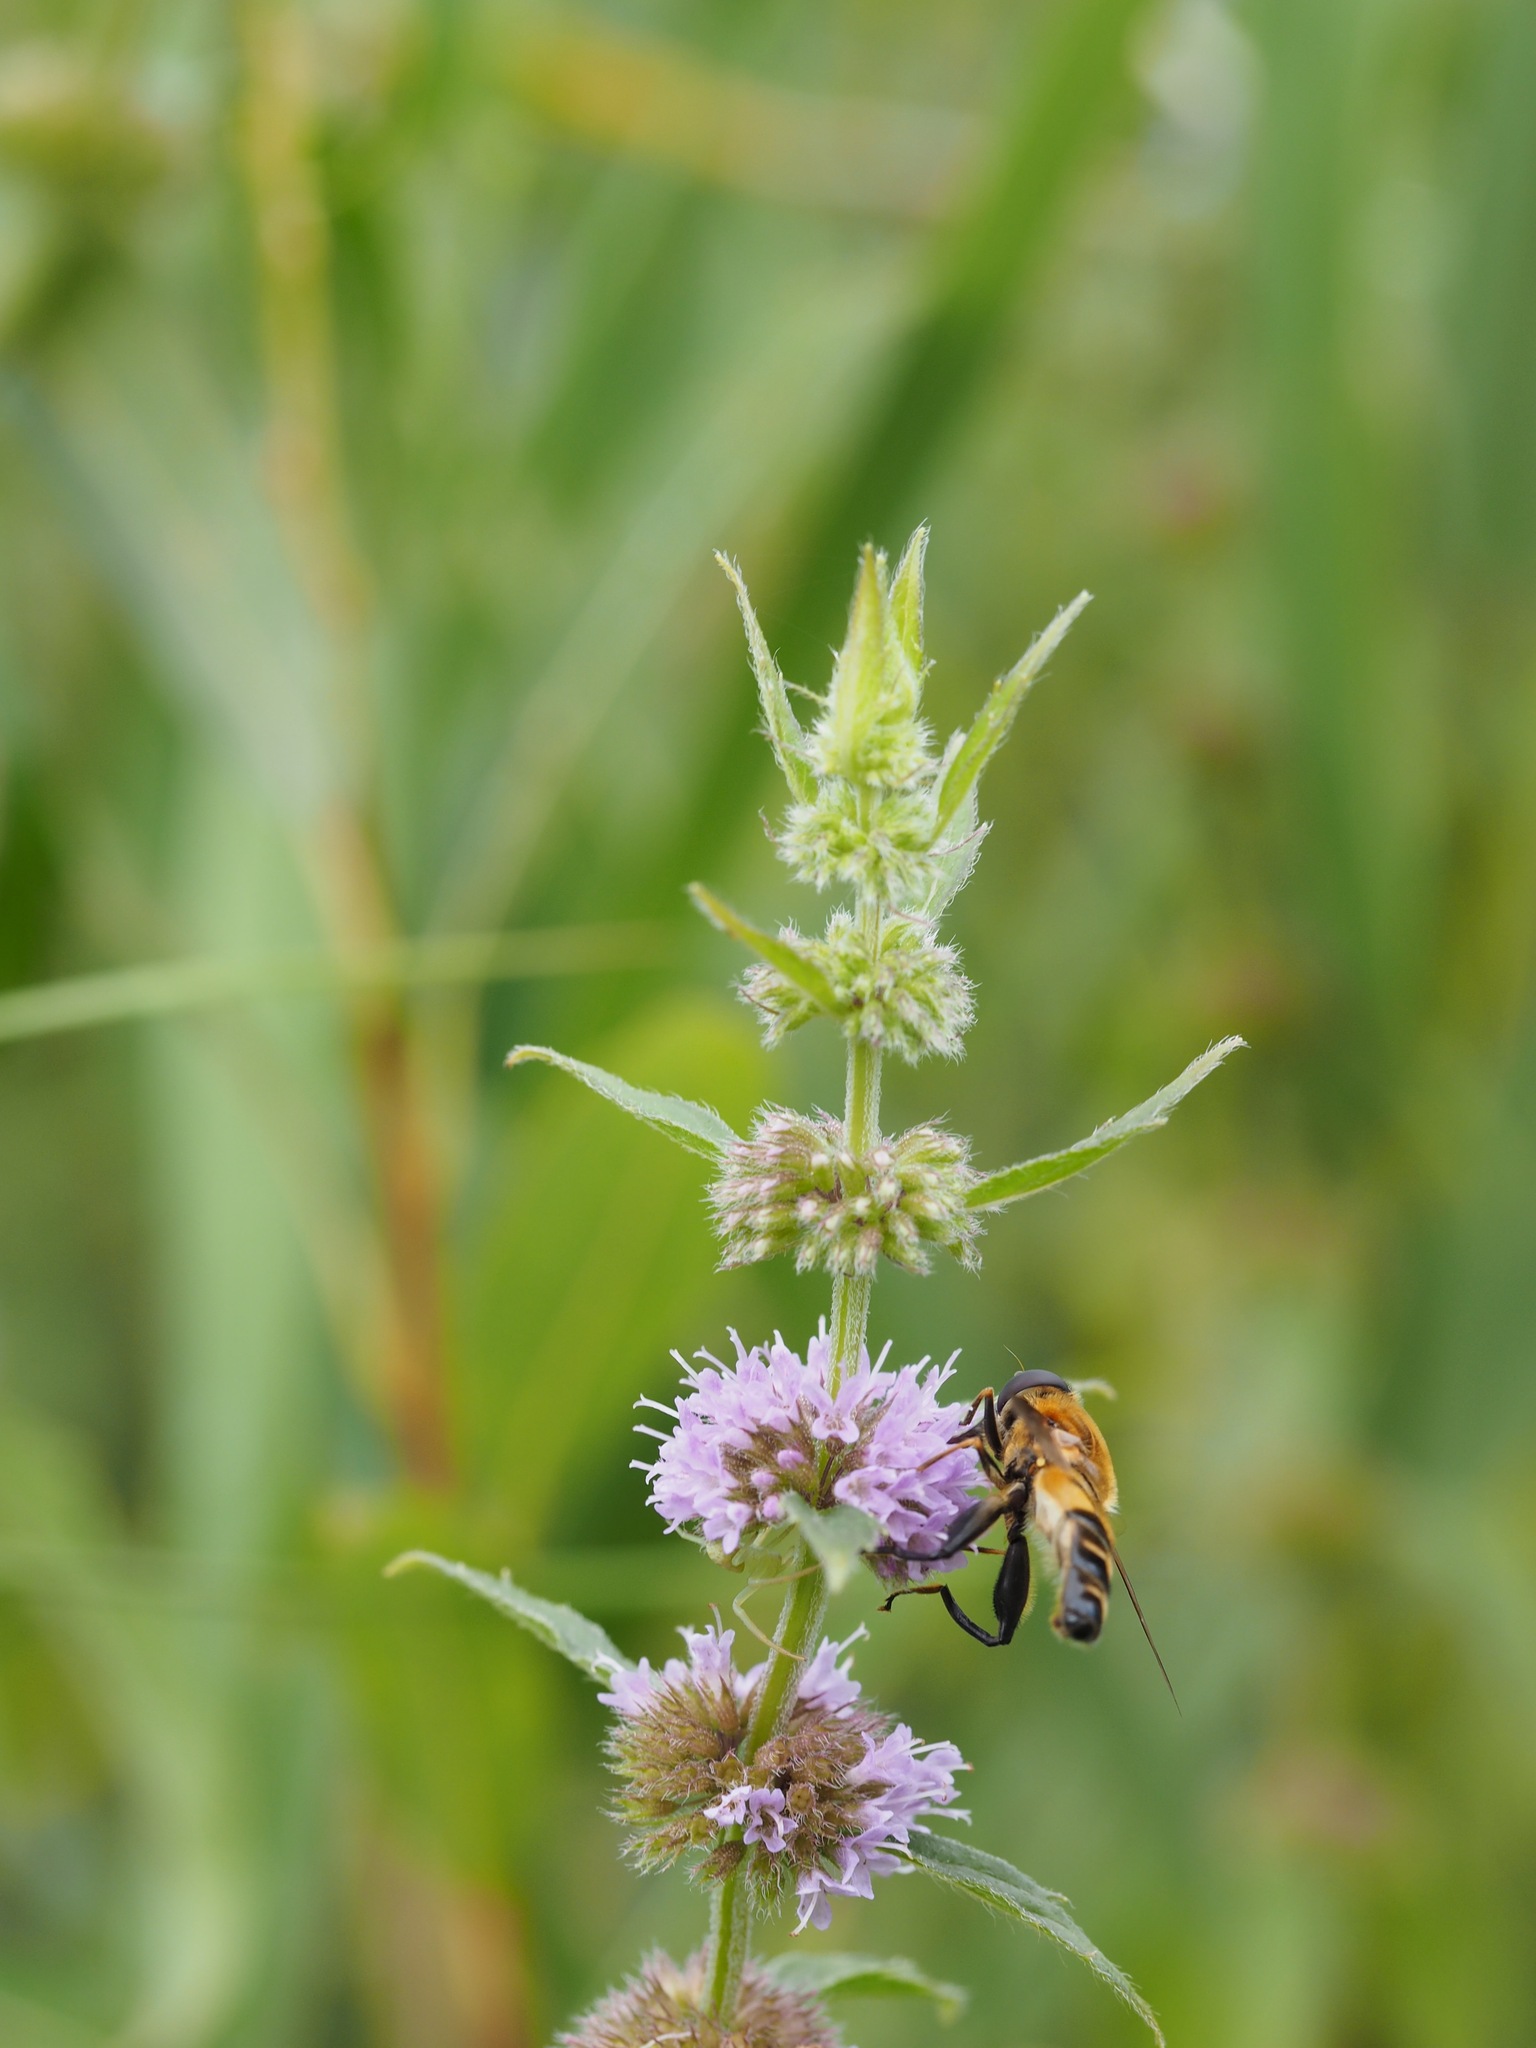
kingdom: Plantae
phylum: Tracheophyta
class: Magnoliopsida
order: Lamiales
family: Lamiaceae
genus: Mentha
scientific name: Mentha canadensis
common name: American corn mint
